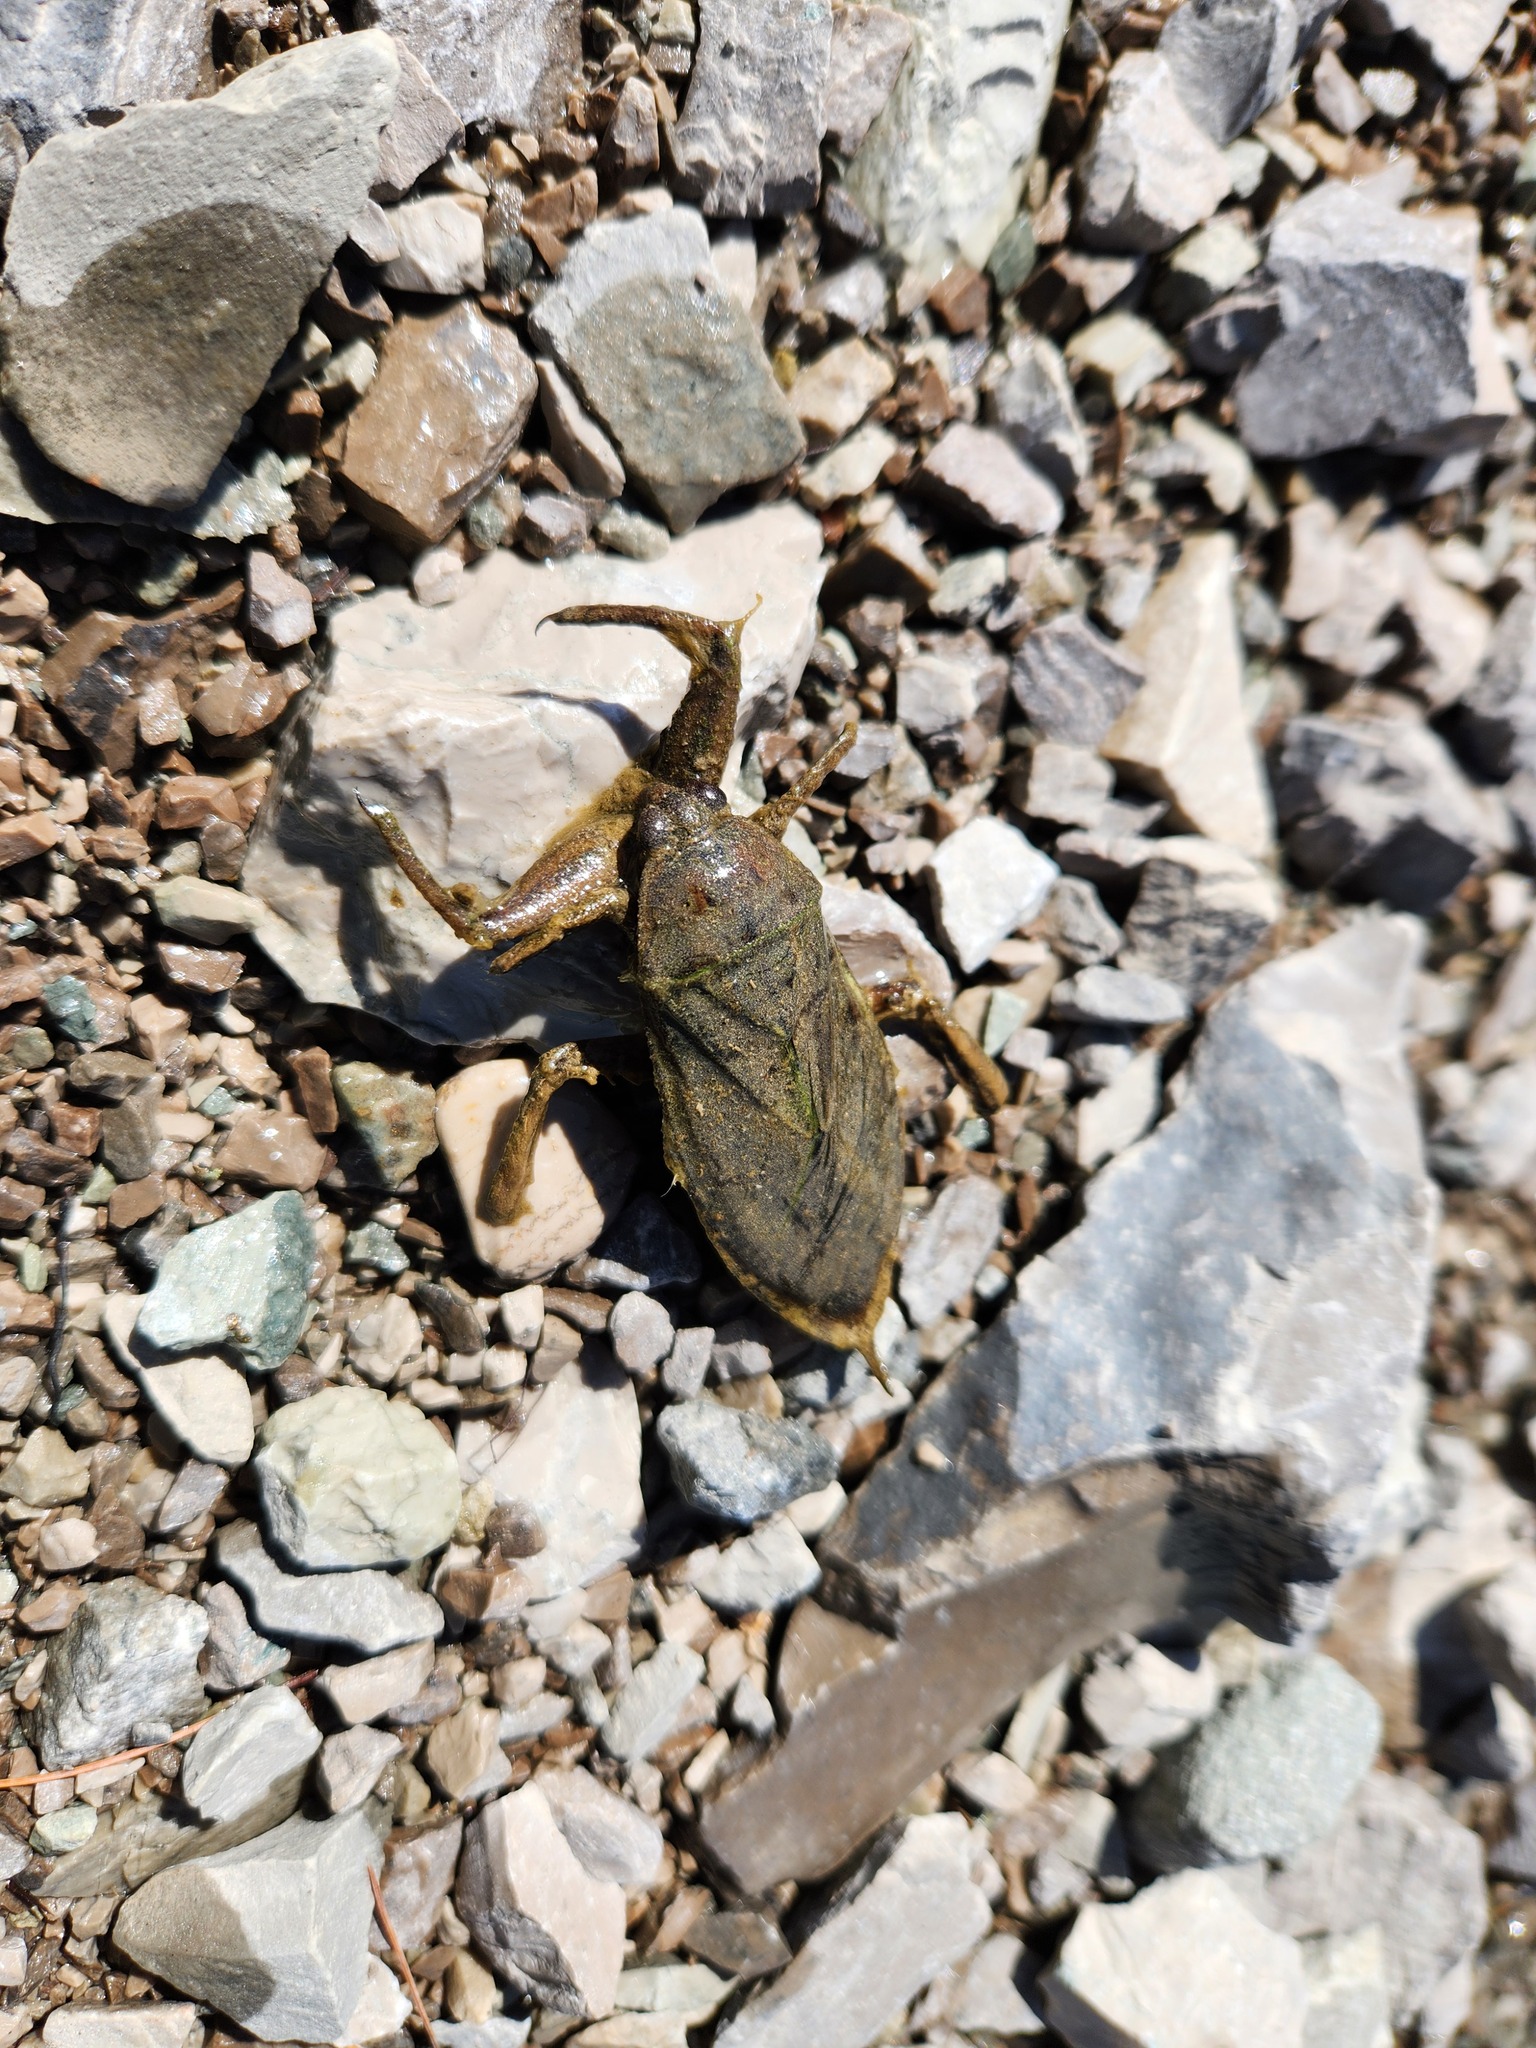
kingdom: Animalia
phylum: Arthropoda
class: Insecta
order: Hemiptera
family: Belostomatidae
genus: Lethocerus
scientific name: Lethocerus americanus
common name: Giant water bug
